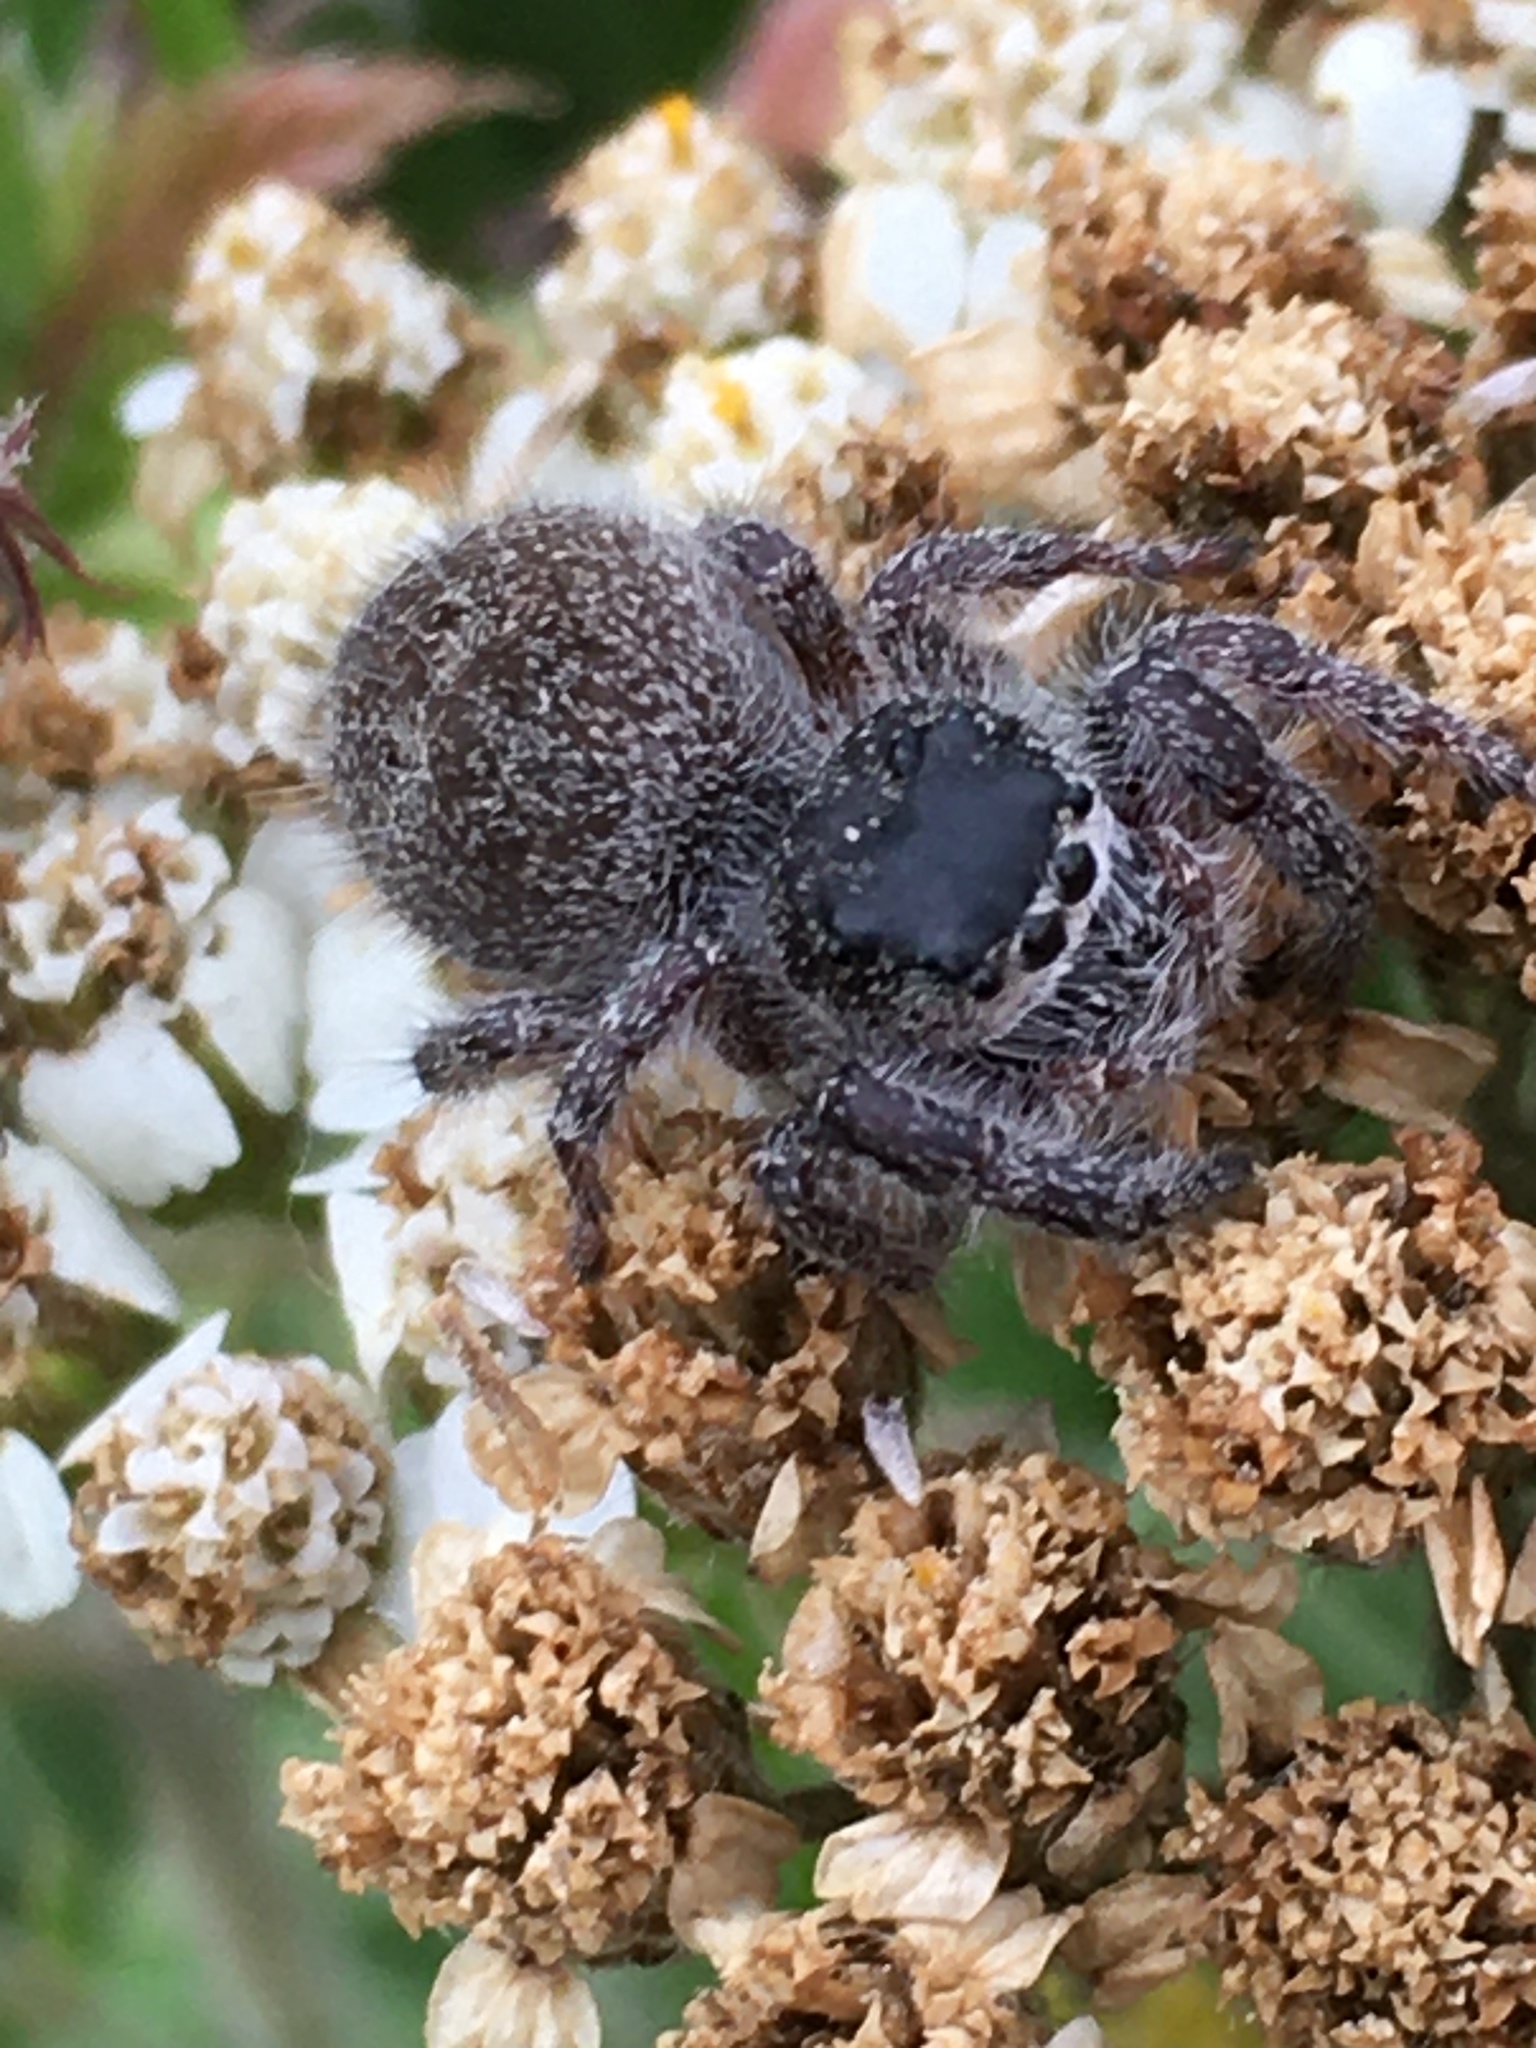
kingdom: Animalia
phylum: Arthropoda
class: Arachnida
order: Araneae
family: Salticidae
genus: Phidippus
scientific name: Phidippus princeps
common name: Grayish jumping spider
